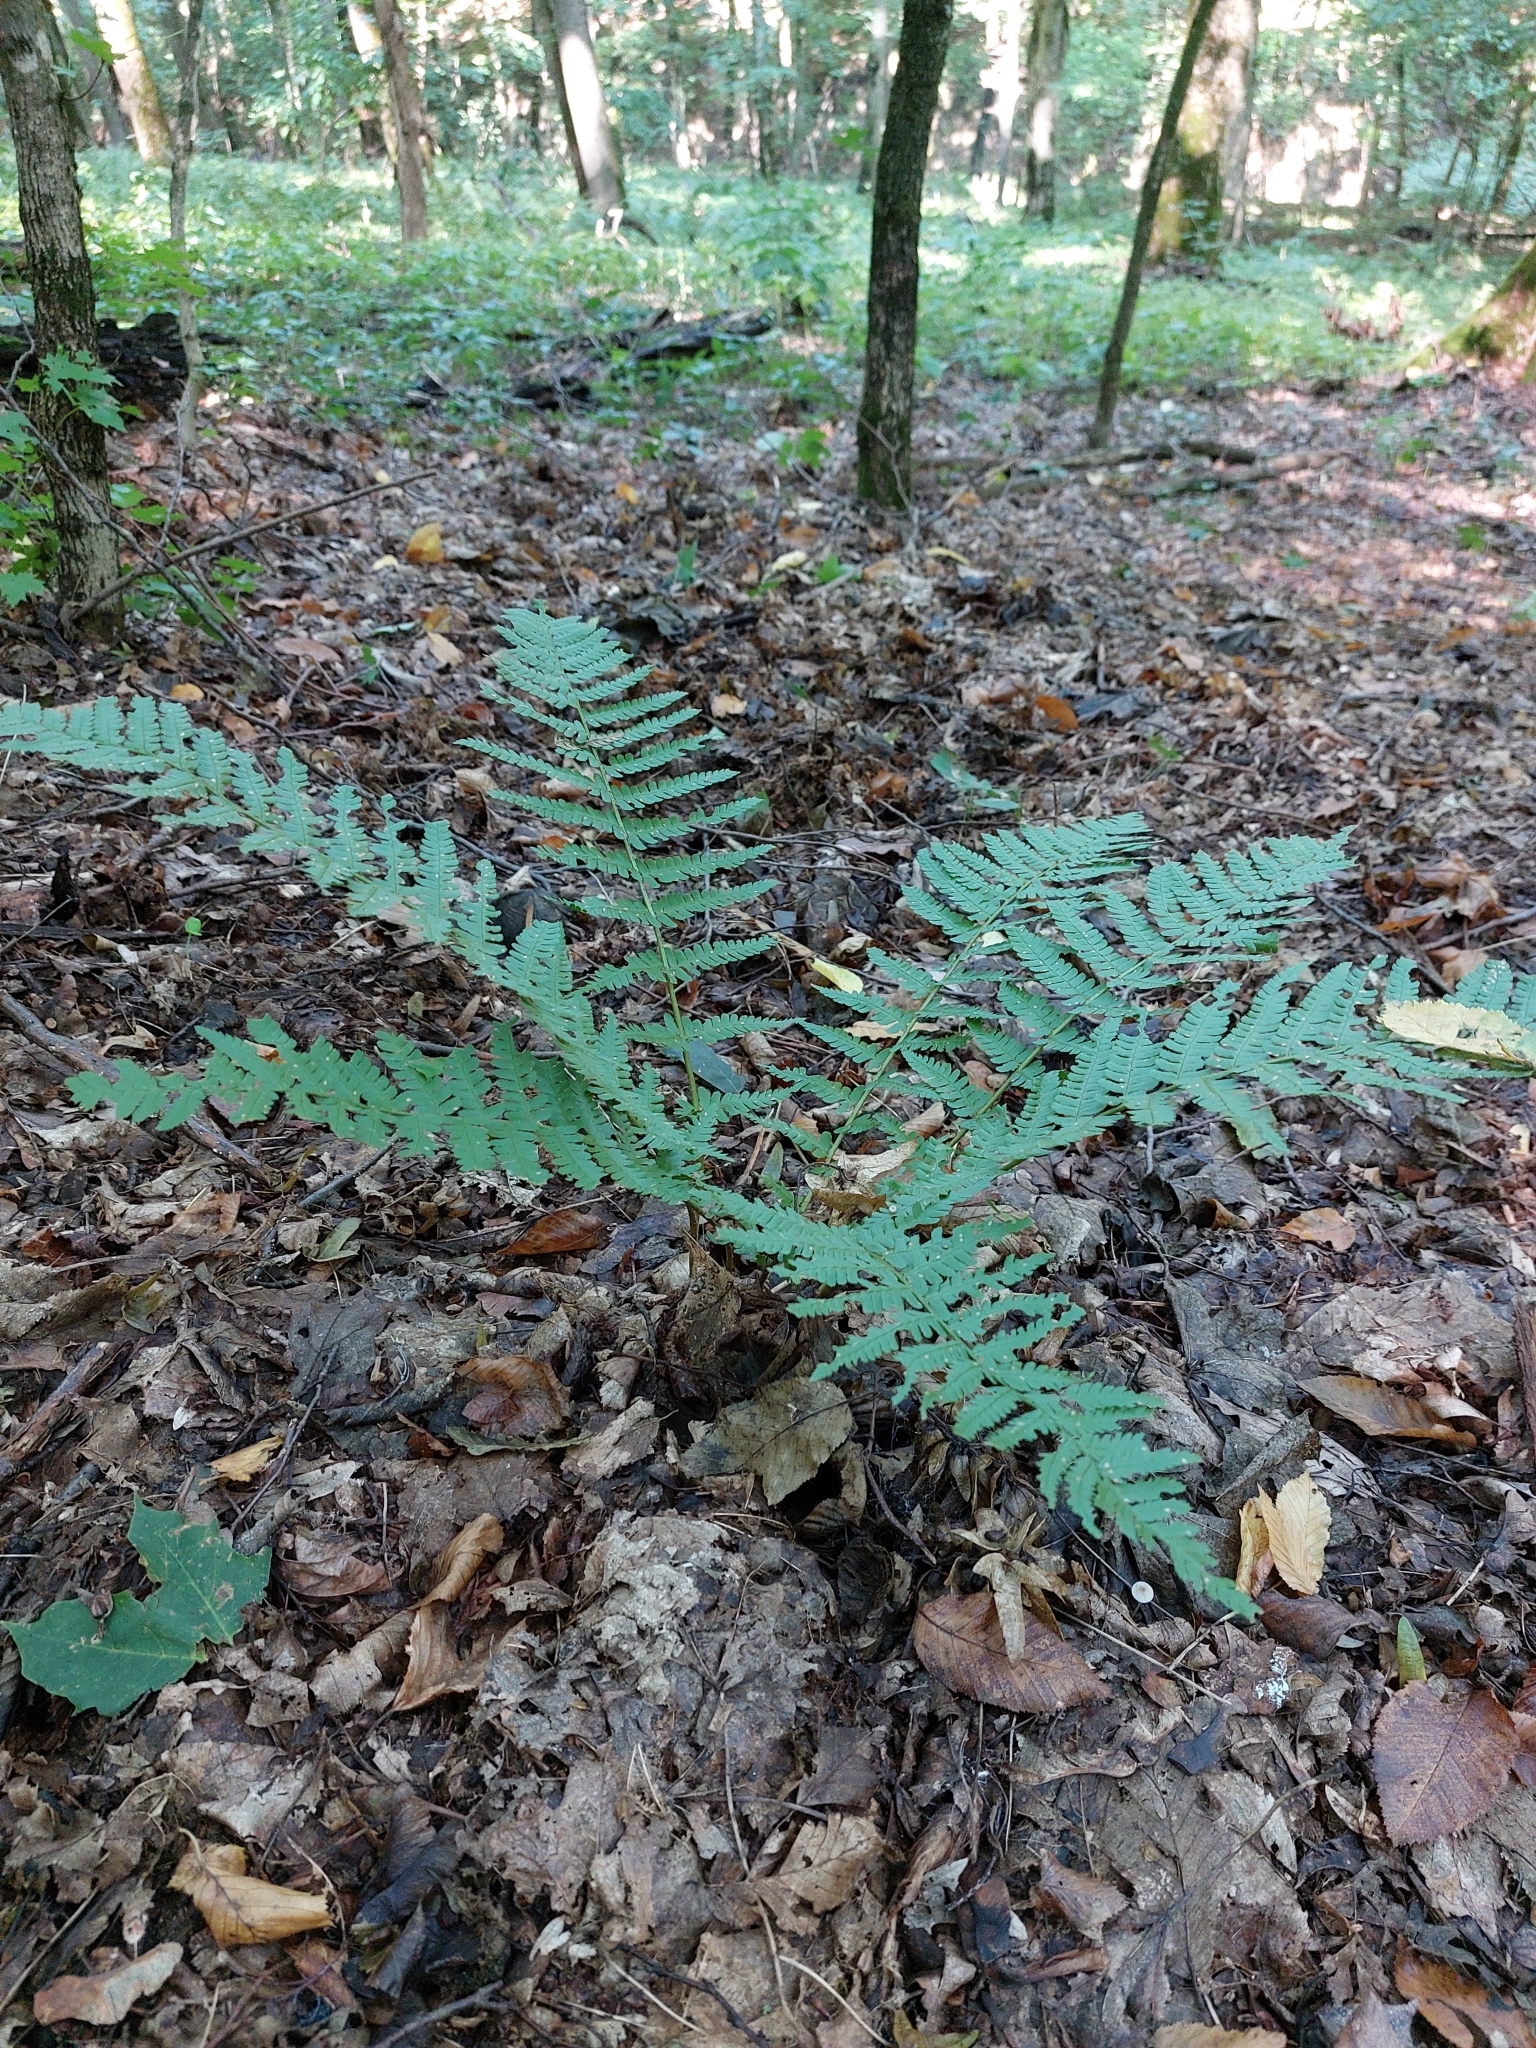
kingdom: Plantae
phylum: Tracheophyta
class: Polypodiopsida
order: Polypodiales
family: Dryopteridaceae
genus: Dryopteris
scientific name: Dryopteris filix-mas
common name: Male fern
